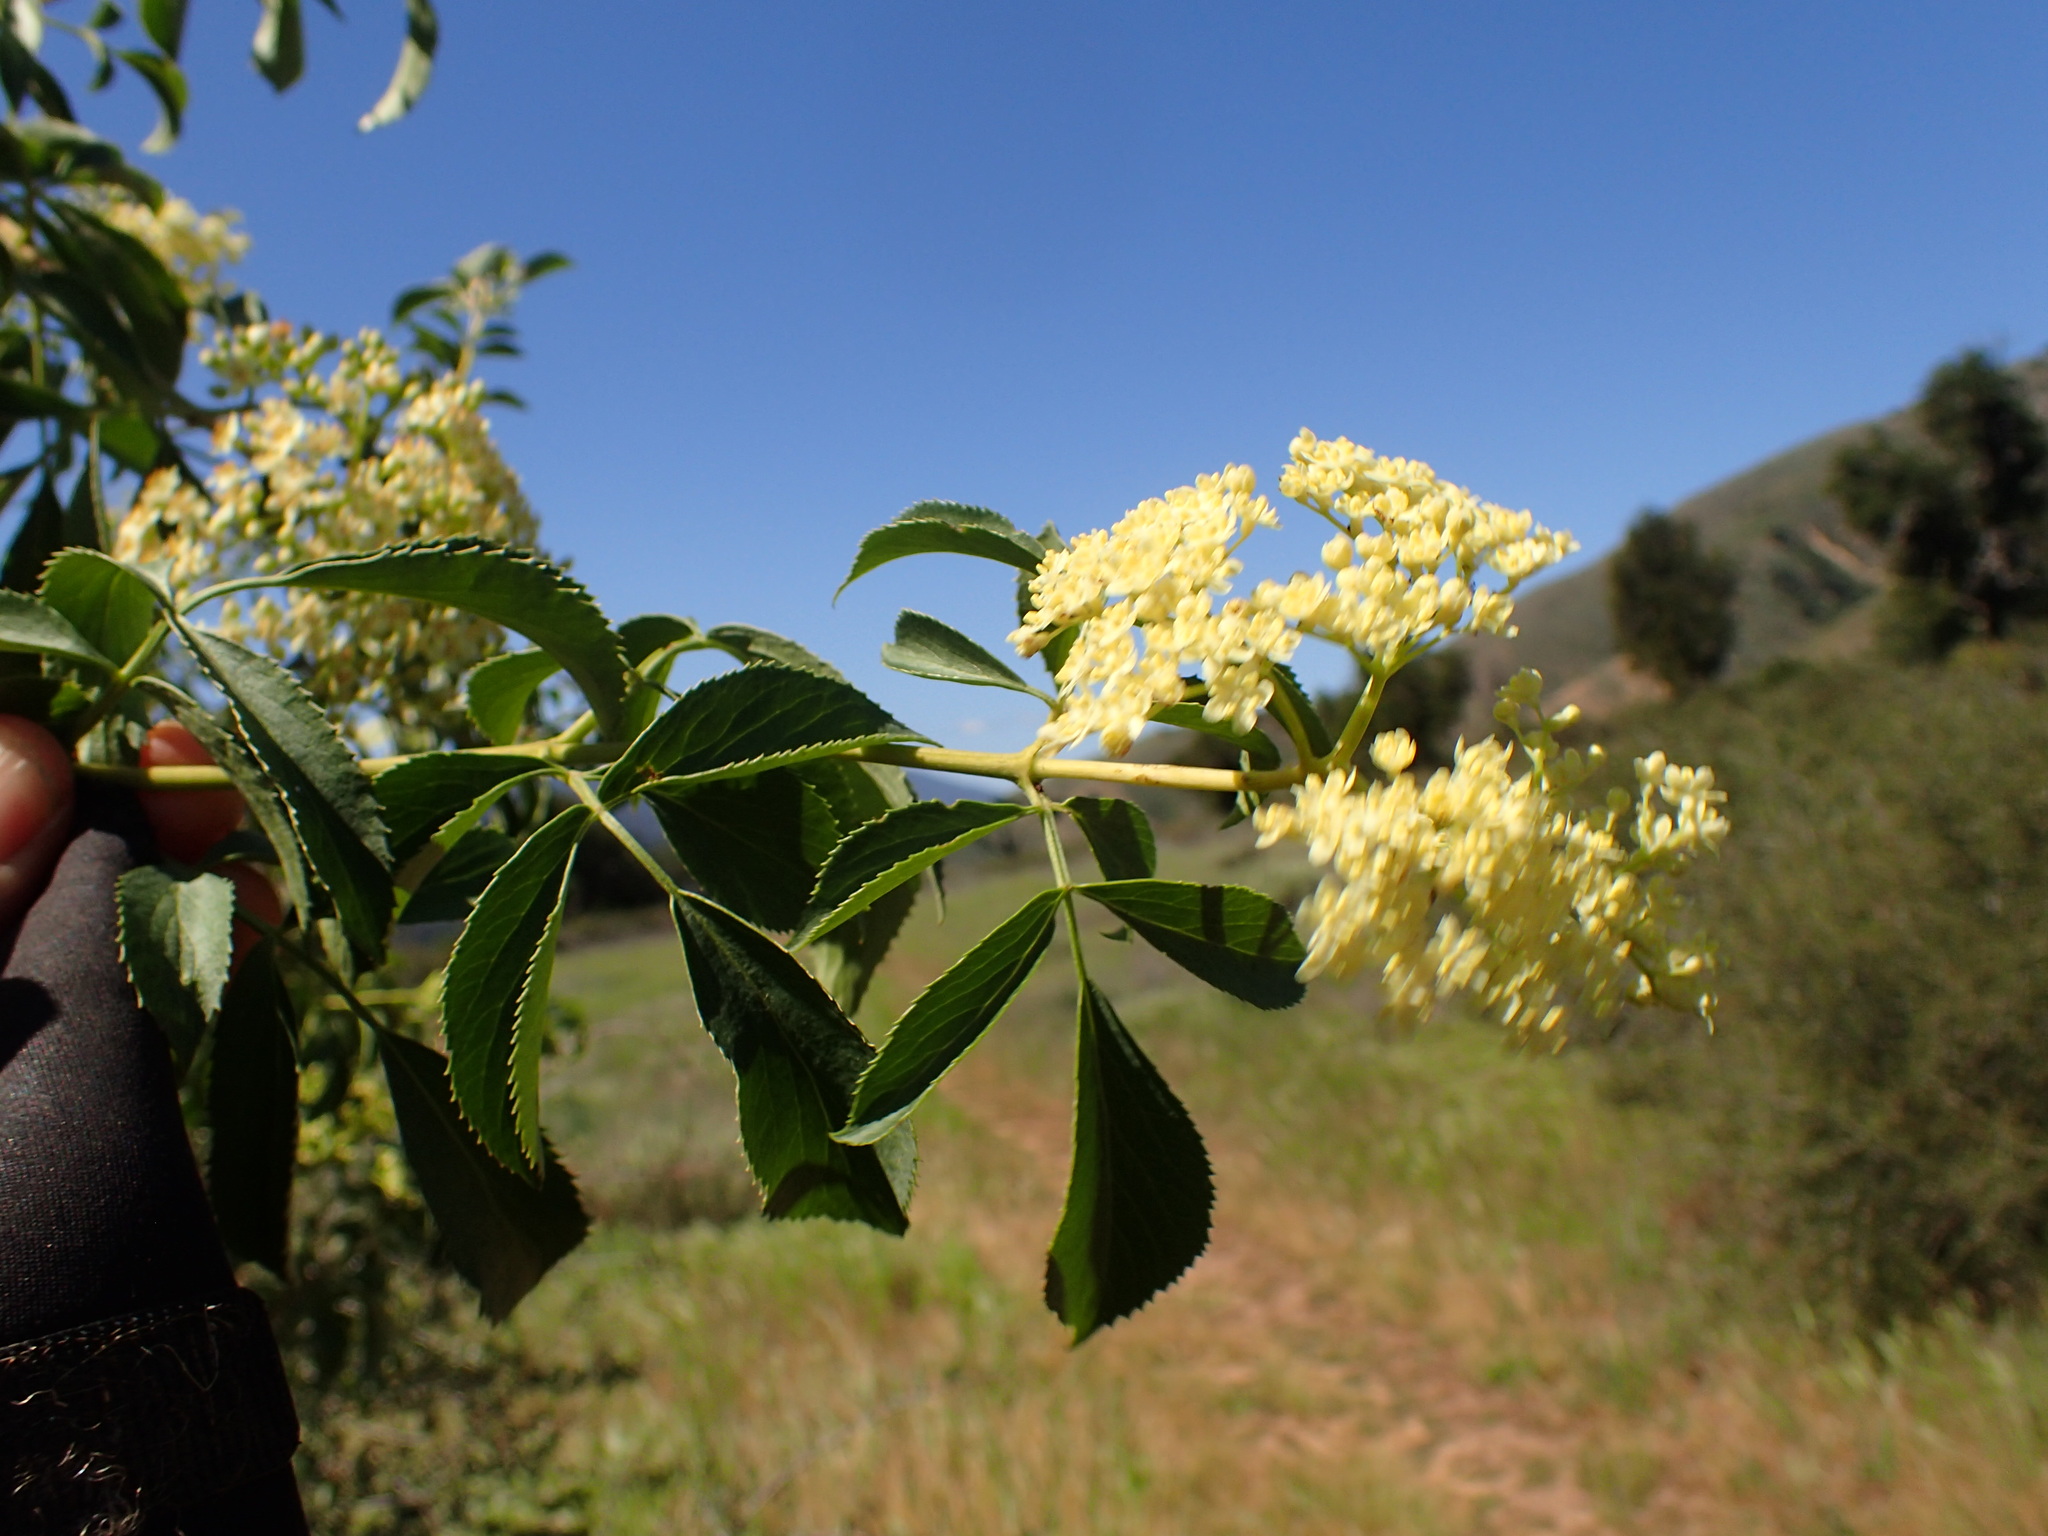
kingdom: Plantae
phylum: Tracheophyta
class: Magnoliopsida
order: Dipsacales
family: Viburnaceae
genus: Sambucus
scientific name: Sambucus cerulea
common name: Blue elder
